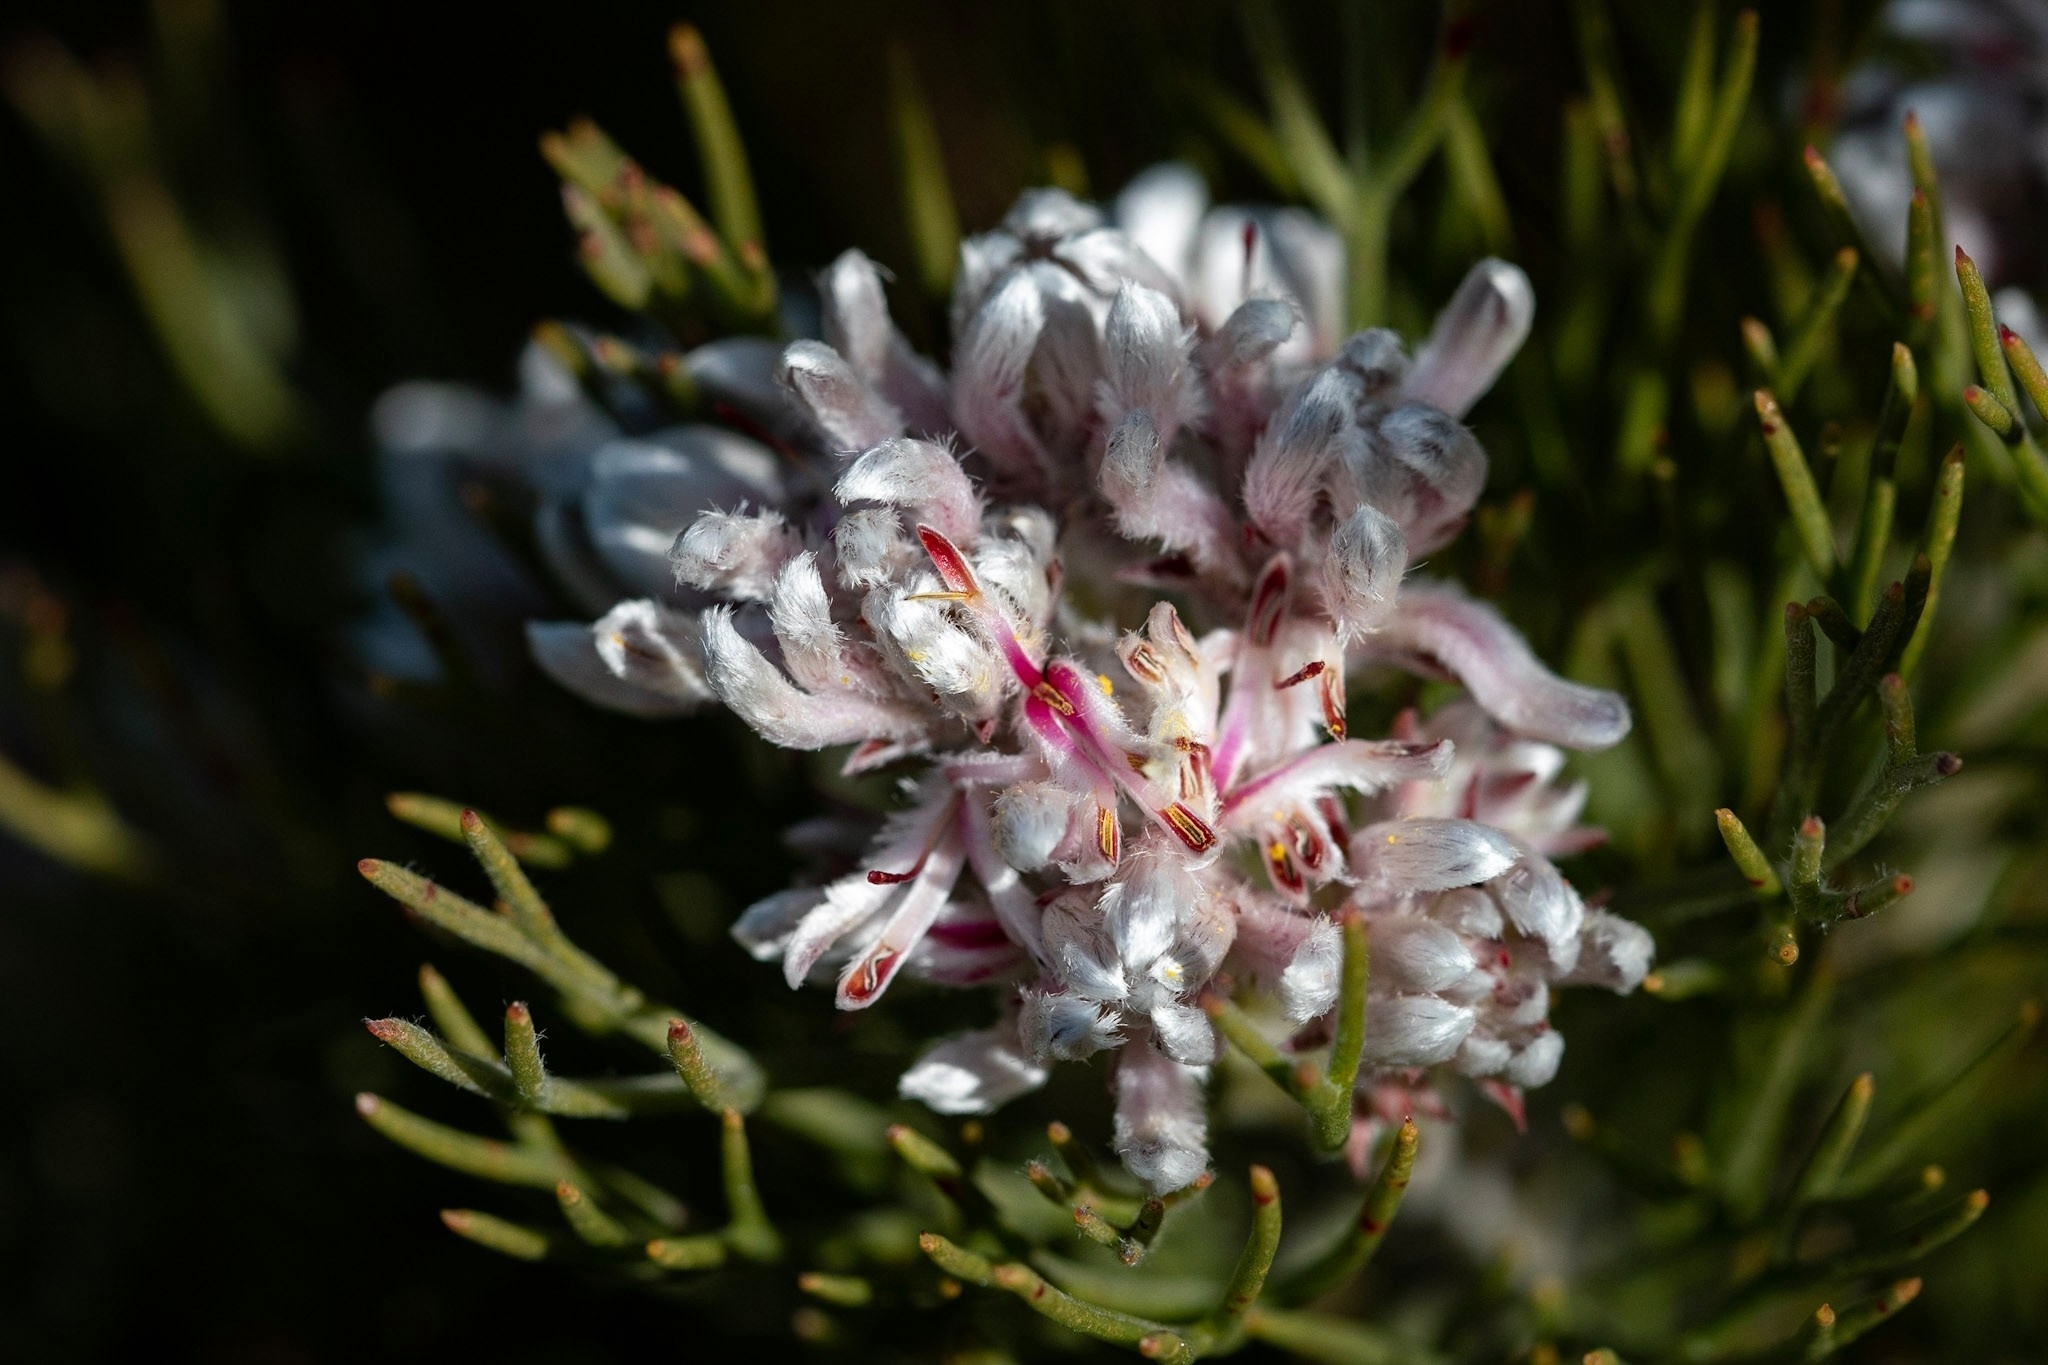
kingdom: Plantae
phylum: Tracheophyta
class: Magnoliopsida
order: Proteales
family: Proteaceae
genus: Serruria
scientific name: Serruria ascendens
